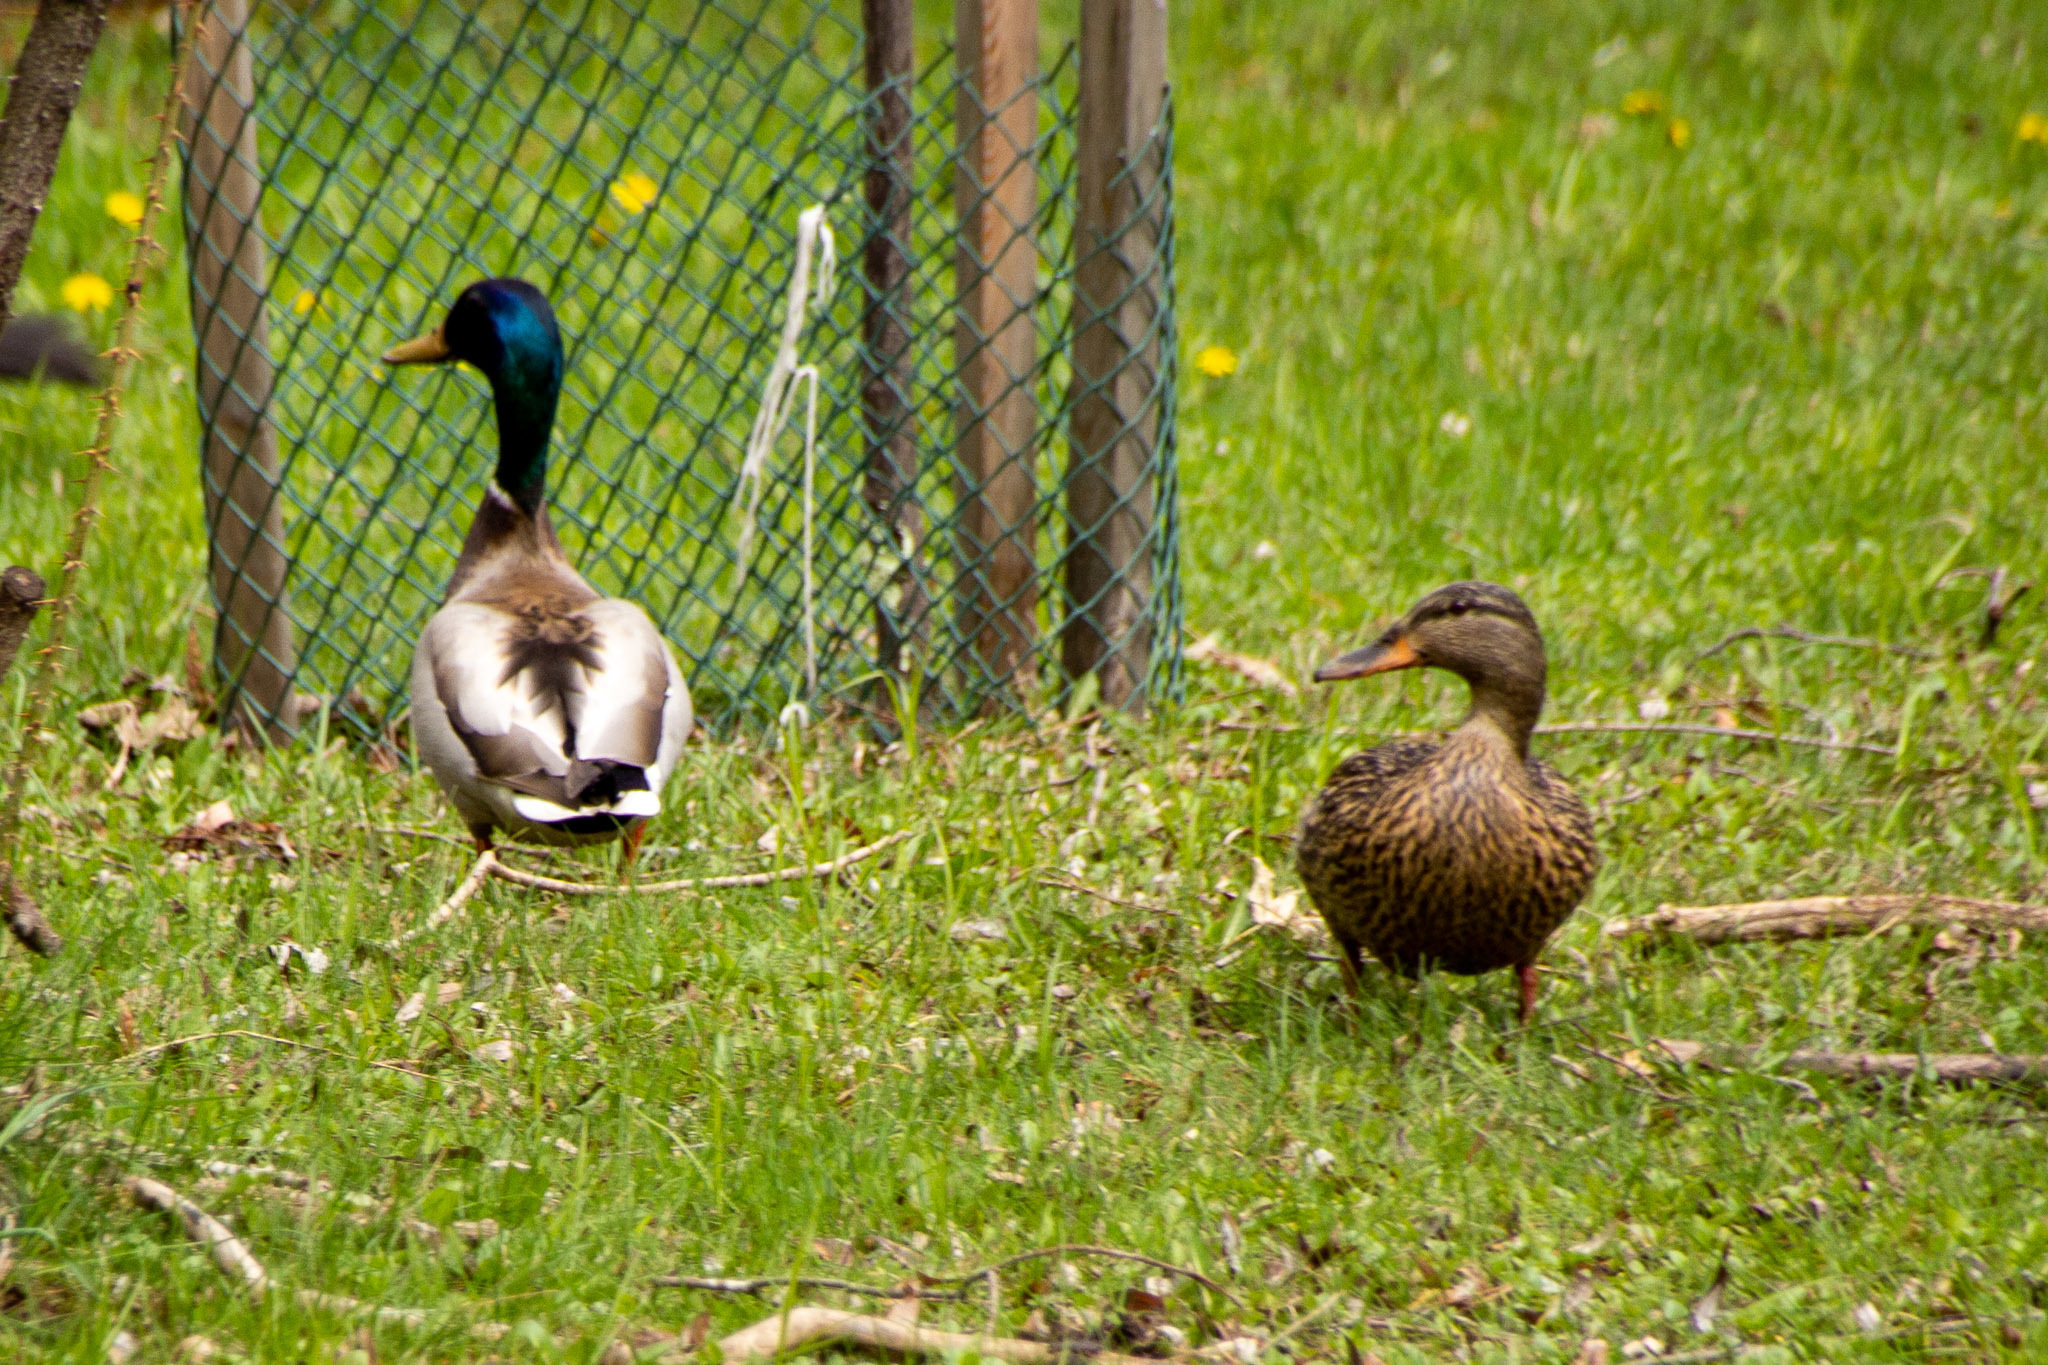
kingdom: Animalia
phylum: Chordata
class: Aves
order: Anseriformes
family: Anatidae
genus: Anas
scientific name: Anas platyrhynchos
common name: Mallard
